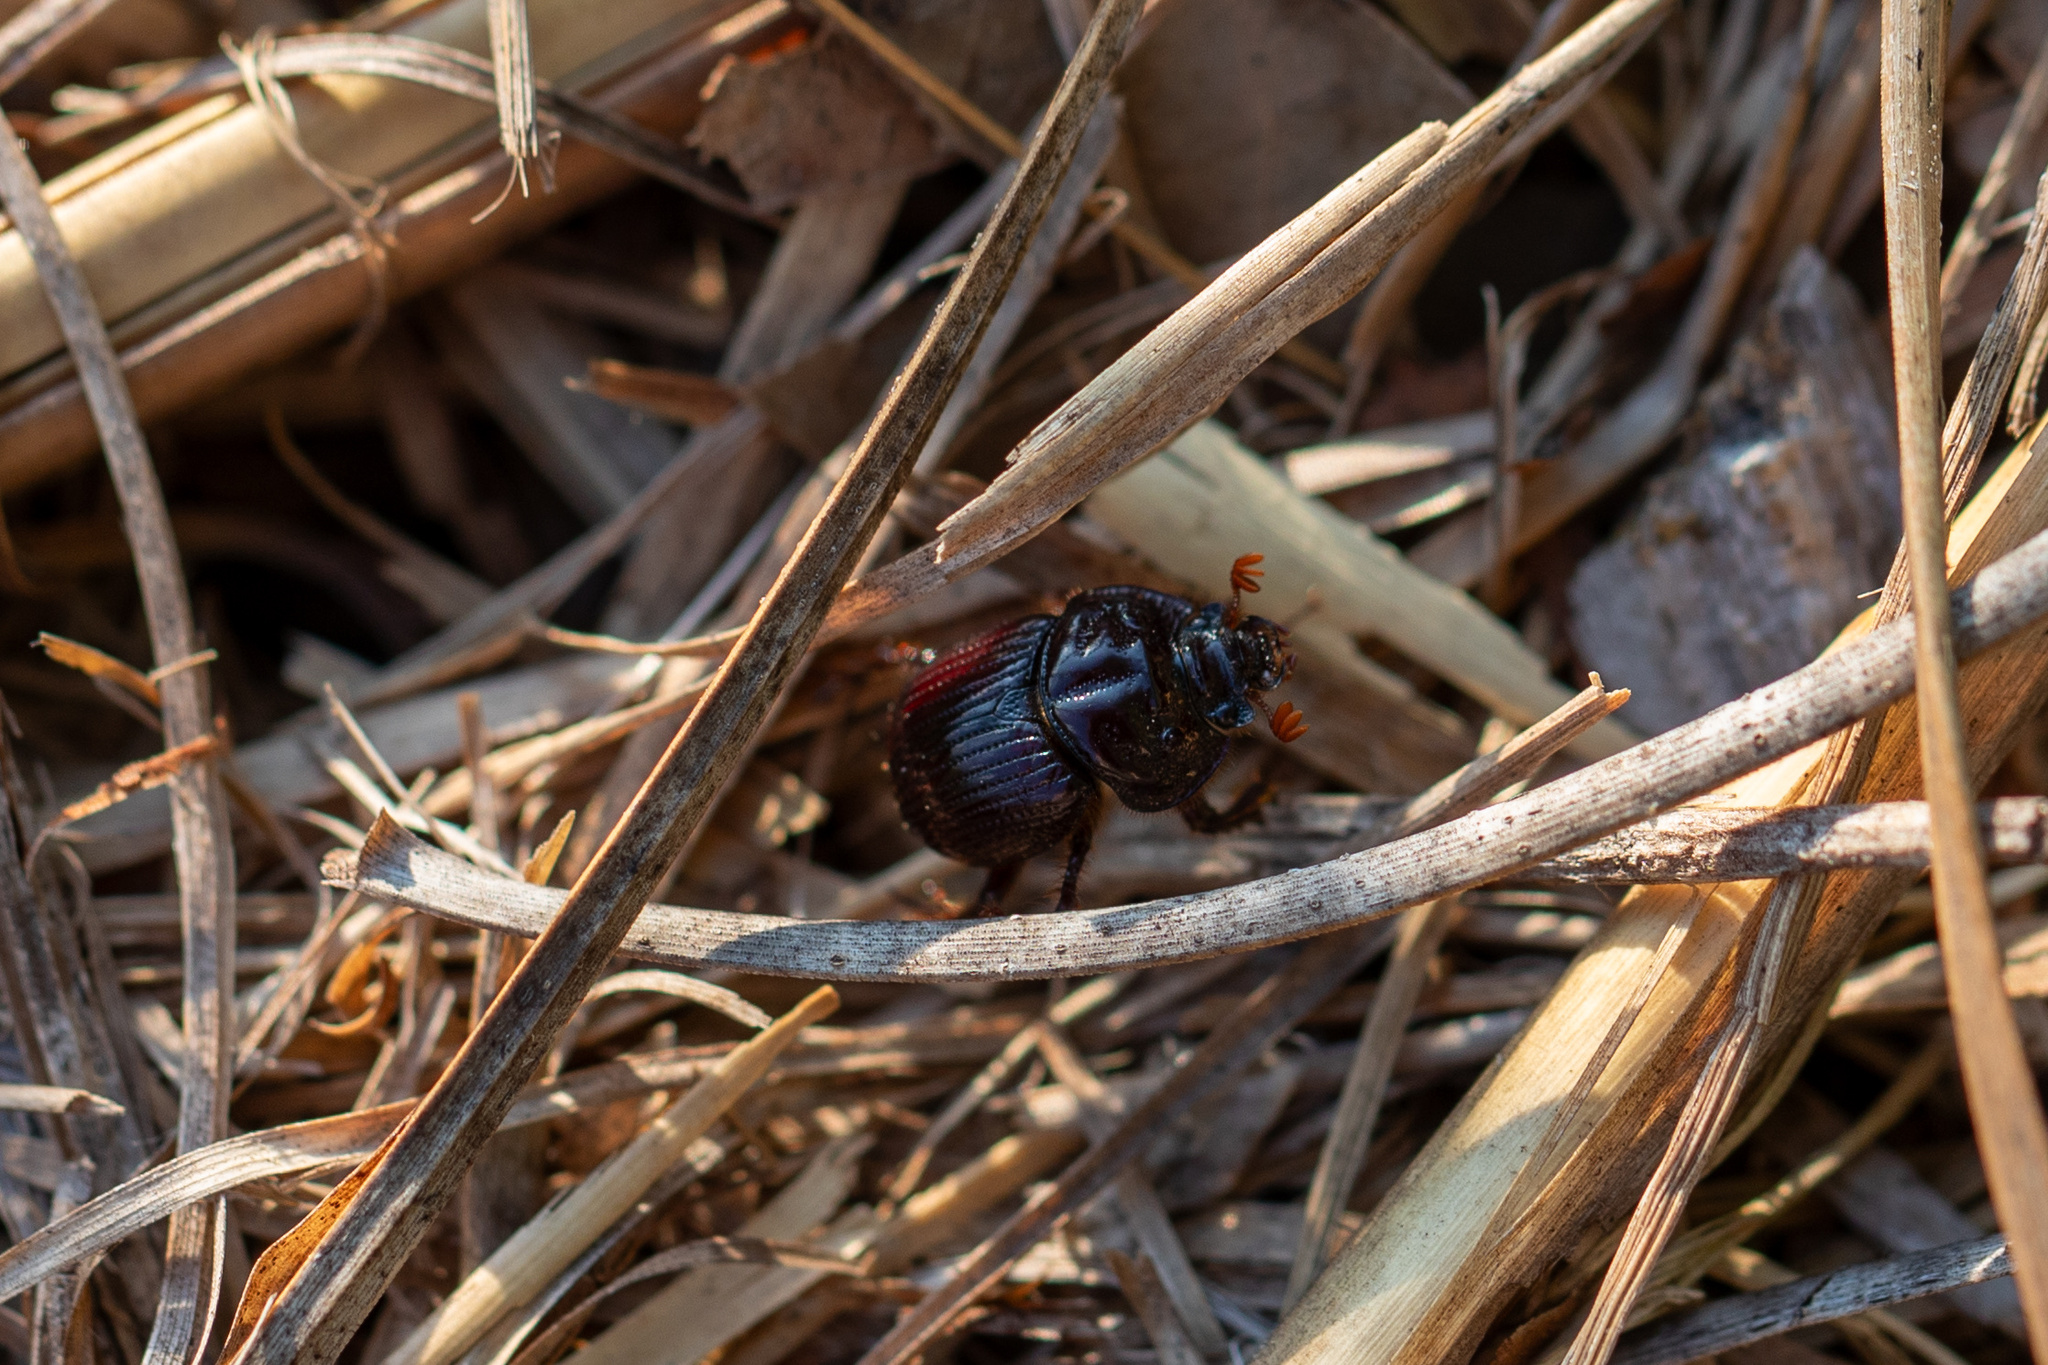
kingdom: Animalia
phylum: Arthropoda
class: Insecta
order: Coleoptera
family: Geotrupidae
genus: Eucanthus
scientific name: Eucanthus subtropicus
